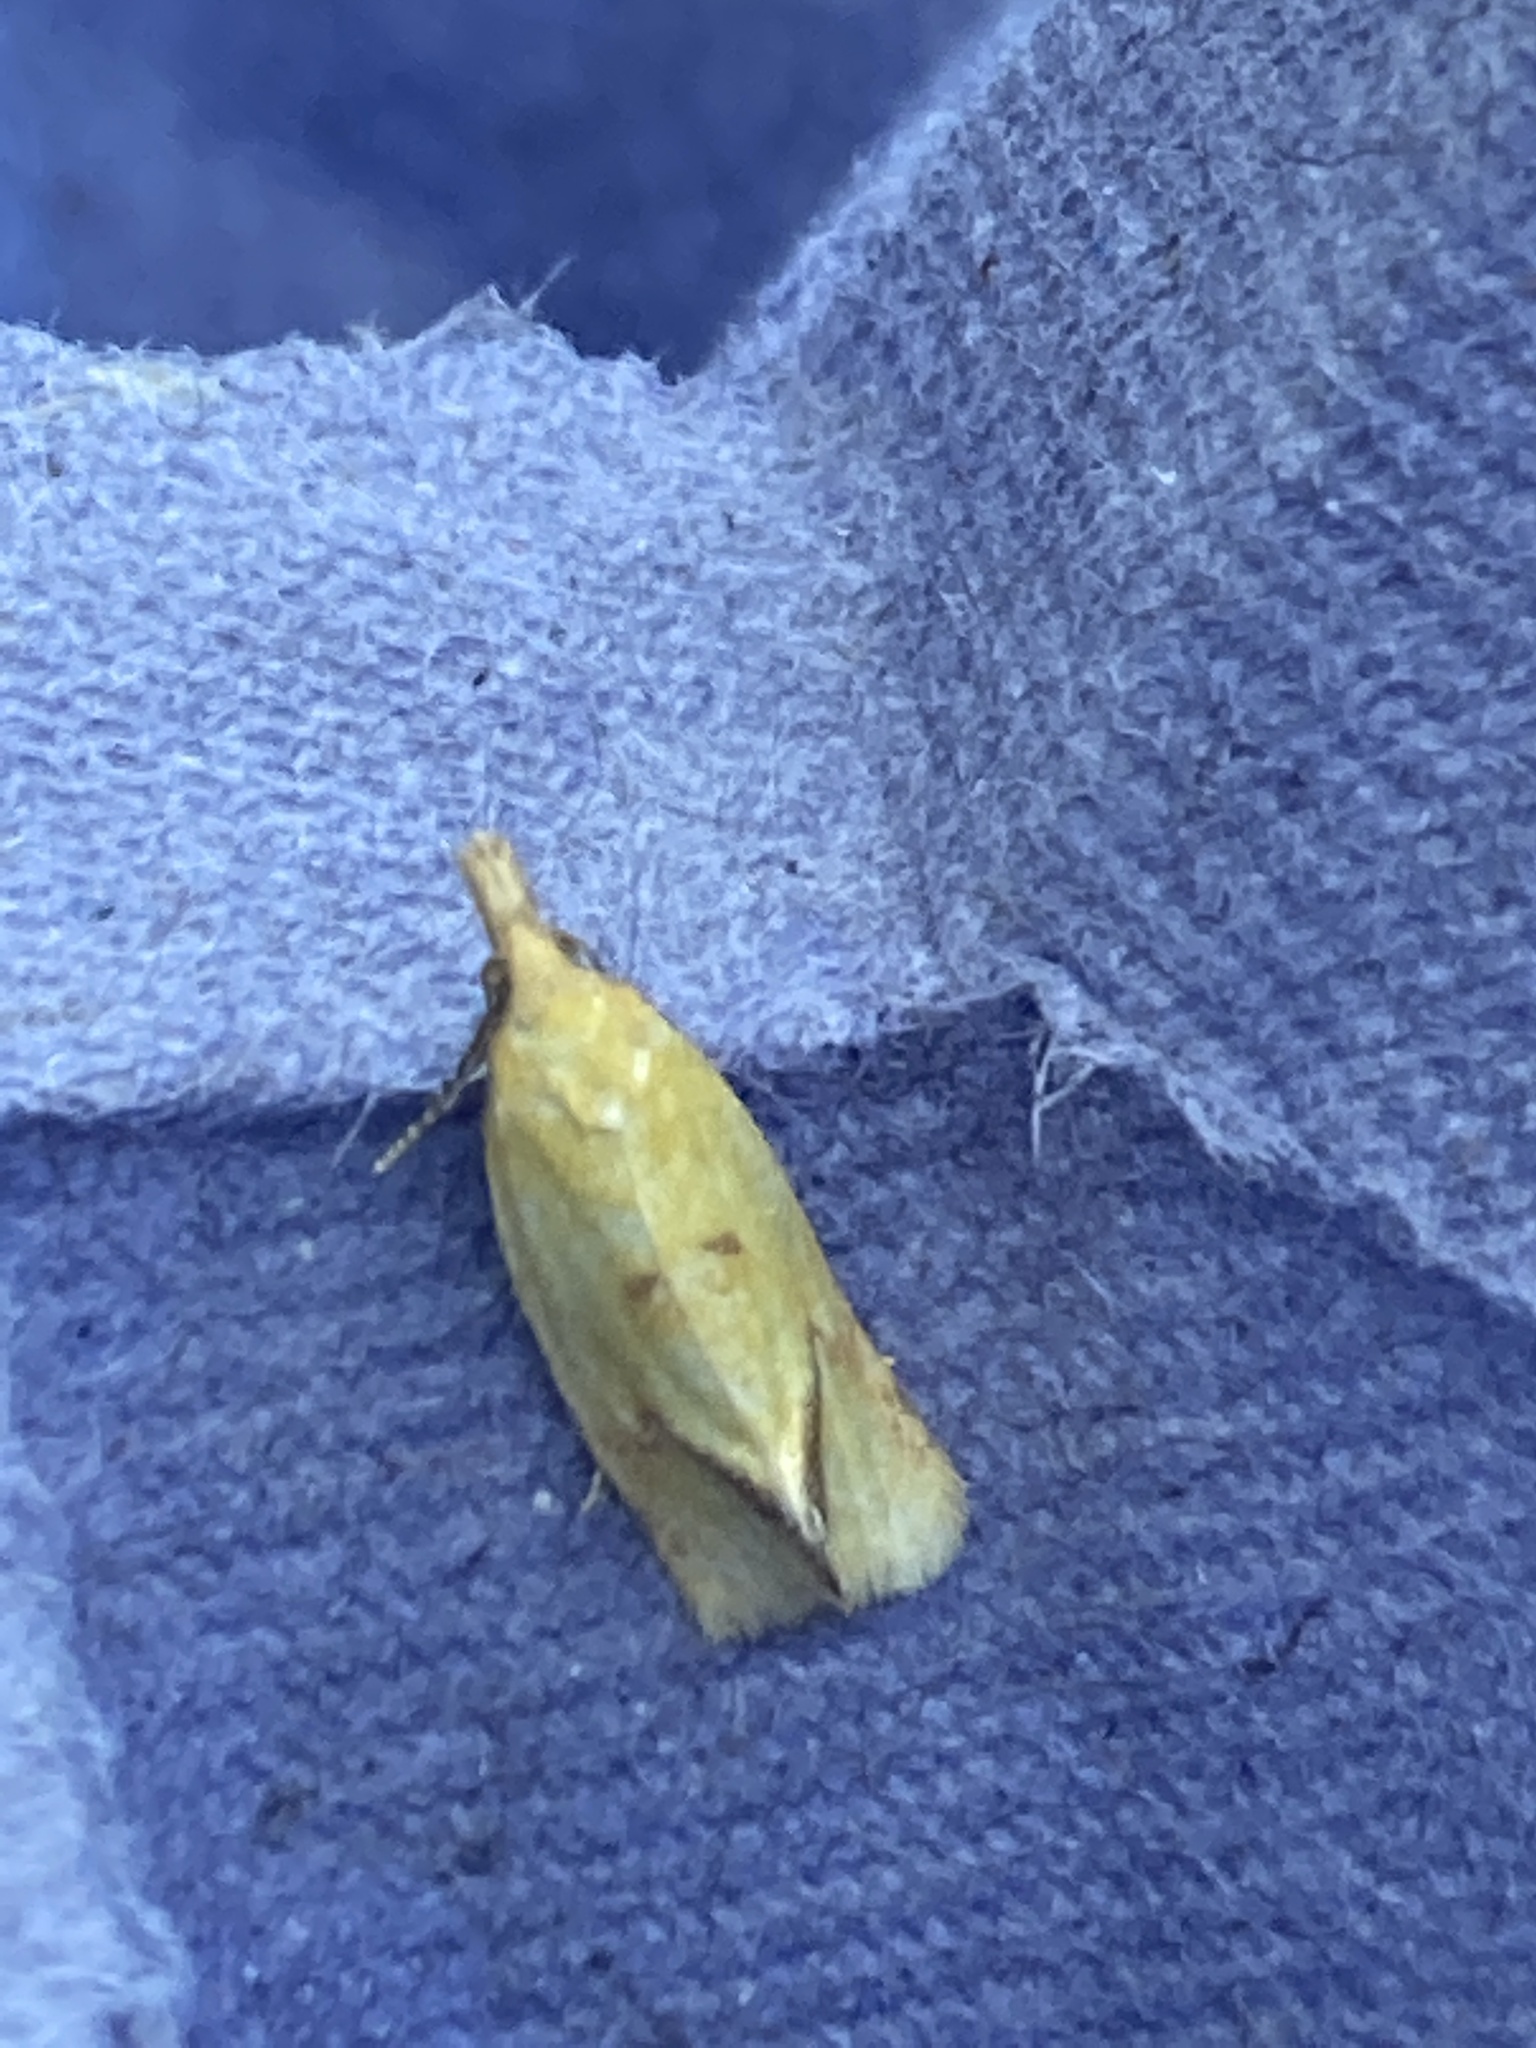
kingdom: Animalia
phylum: Arthropoda
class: Insecta
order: Lepidoptera
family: Tortricidae
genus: Agapeta
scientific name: Agapeta hamana
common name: Common yellow conch
